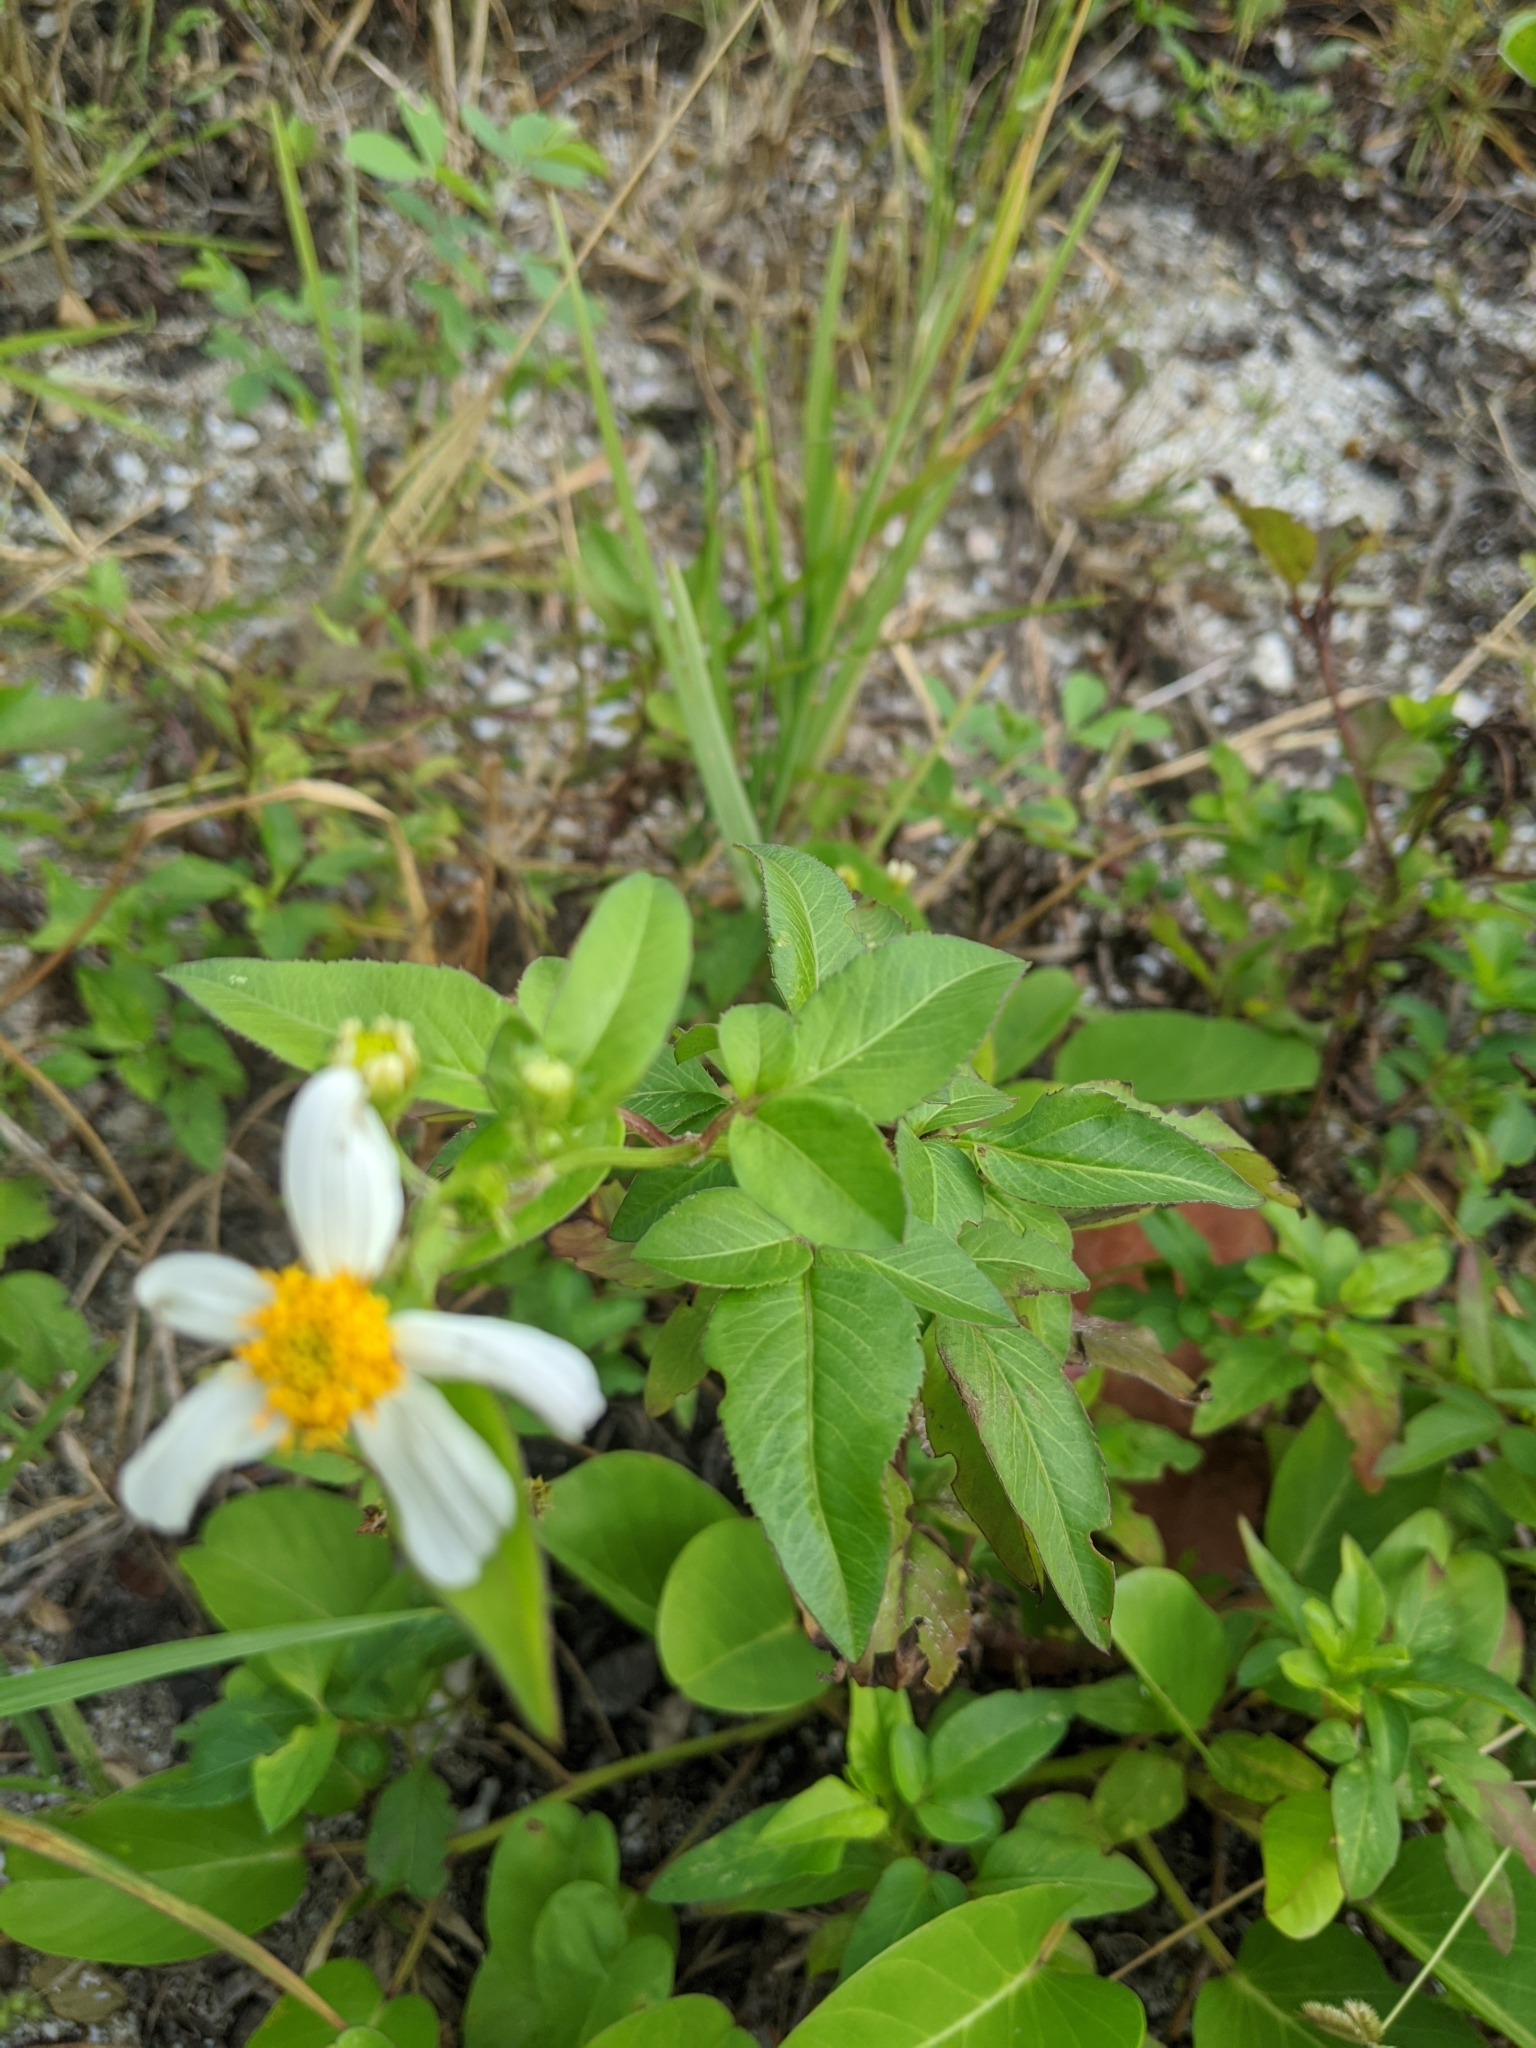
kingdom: Plantae
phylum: Tracheophyta
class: Magnoliopsida
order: Asterales
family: Asteraceae
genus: Bidens
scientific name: Bidens alba
